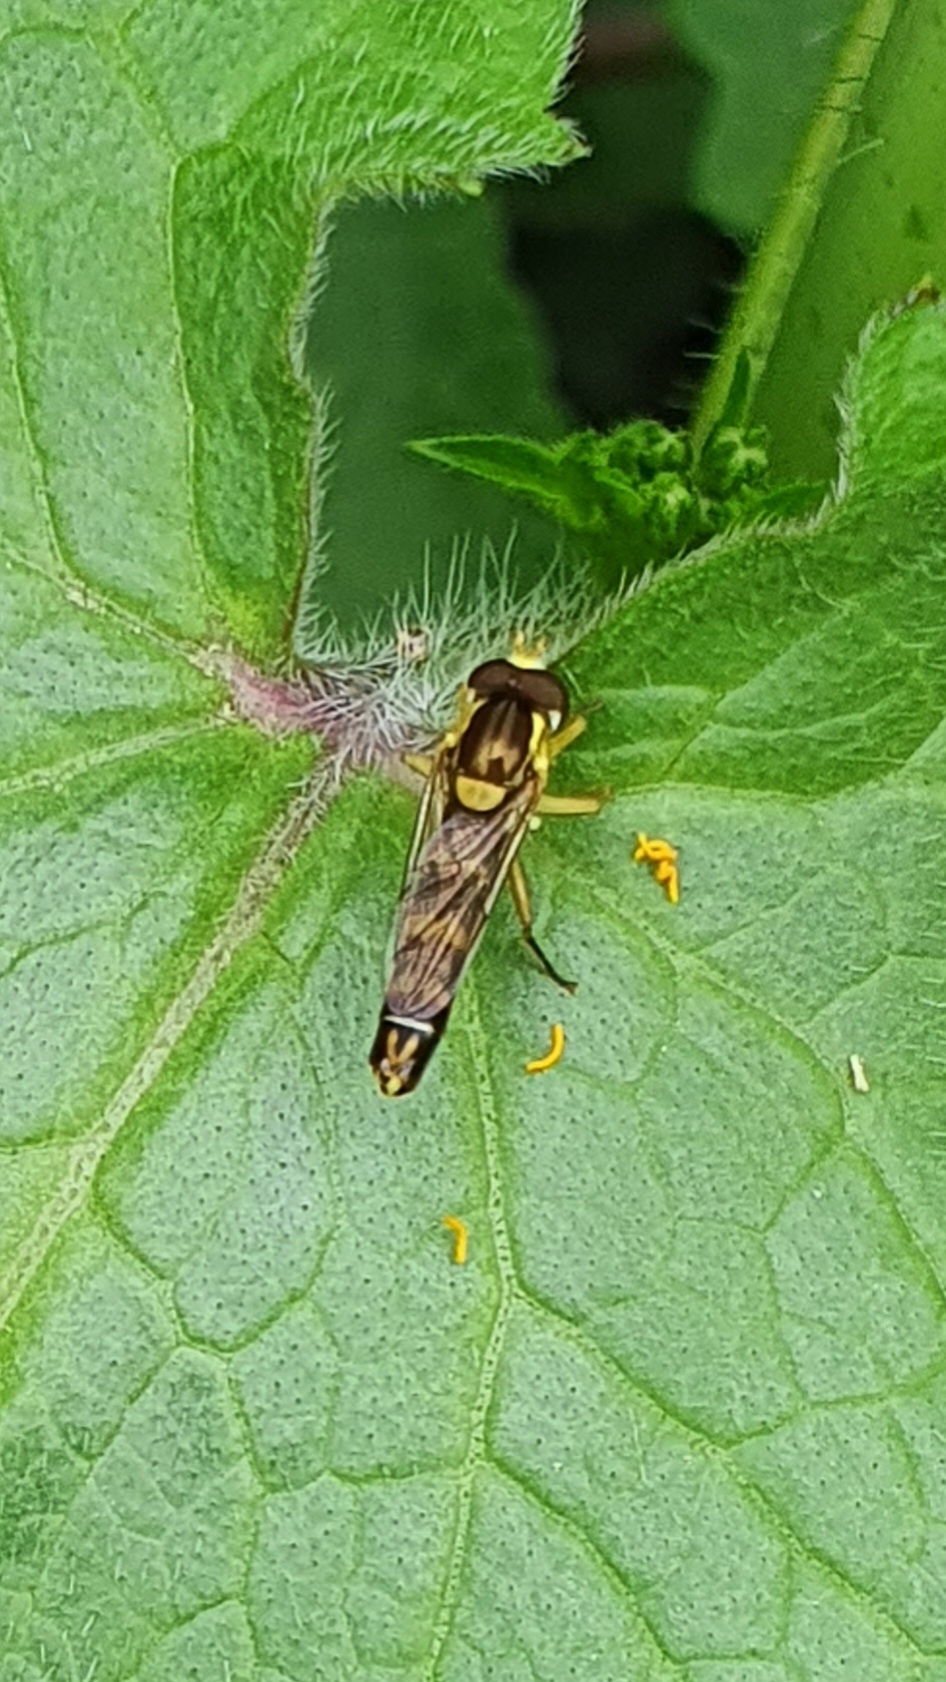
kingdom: Animalia
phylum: Arthropoda
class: Insecta
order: Diptera
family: Syrphidae
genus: Sphaerophoria
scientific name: Sphaerophoria scripta
